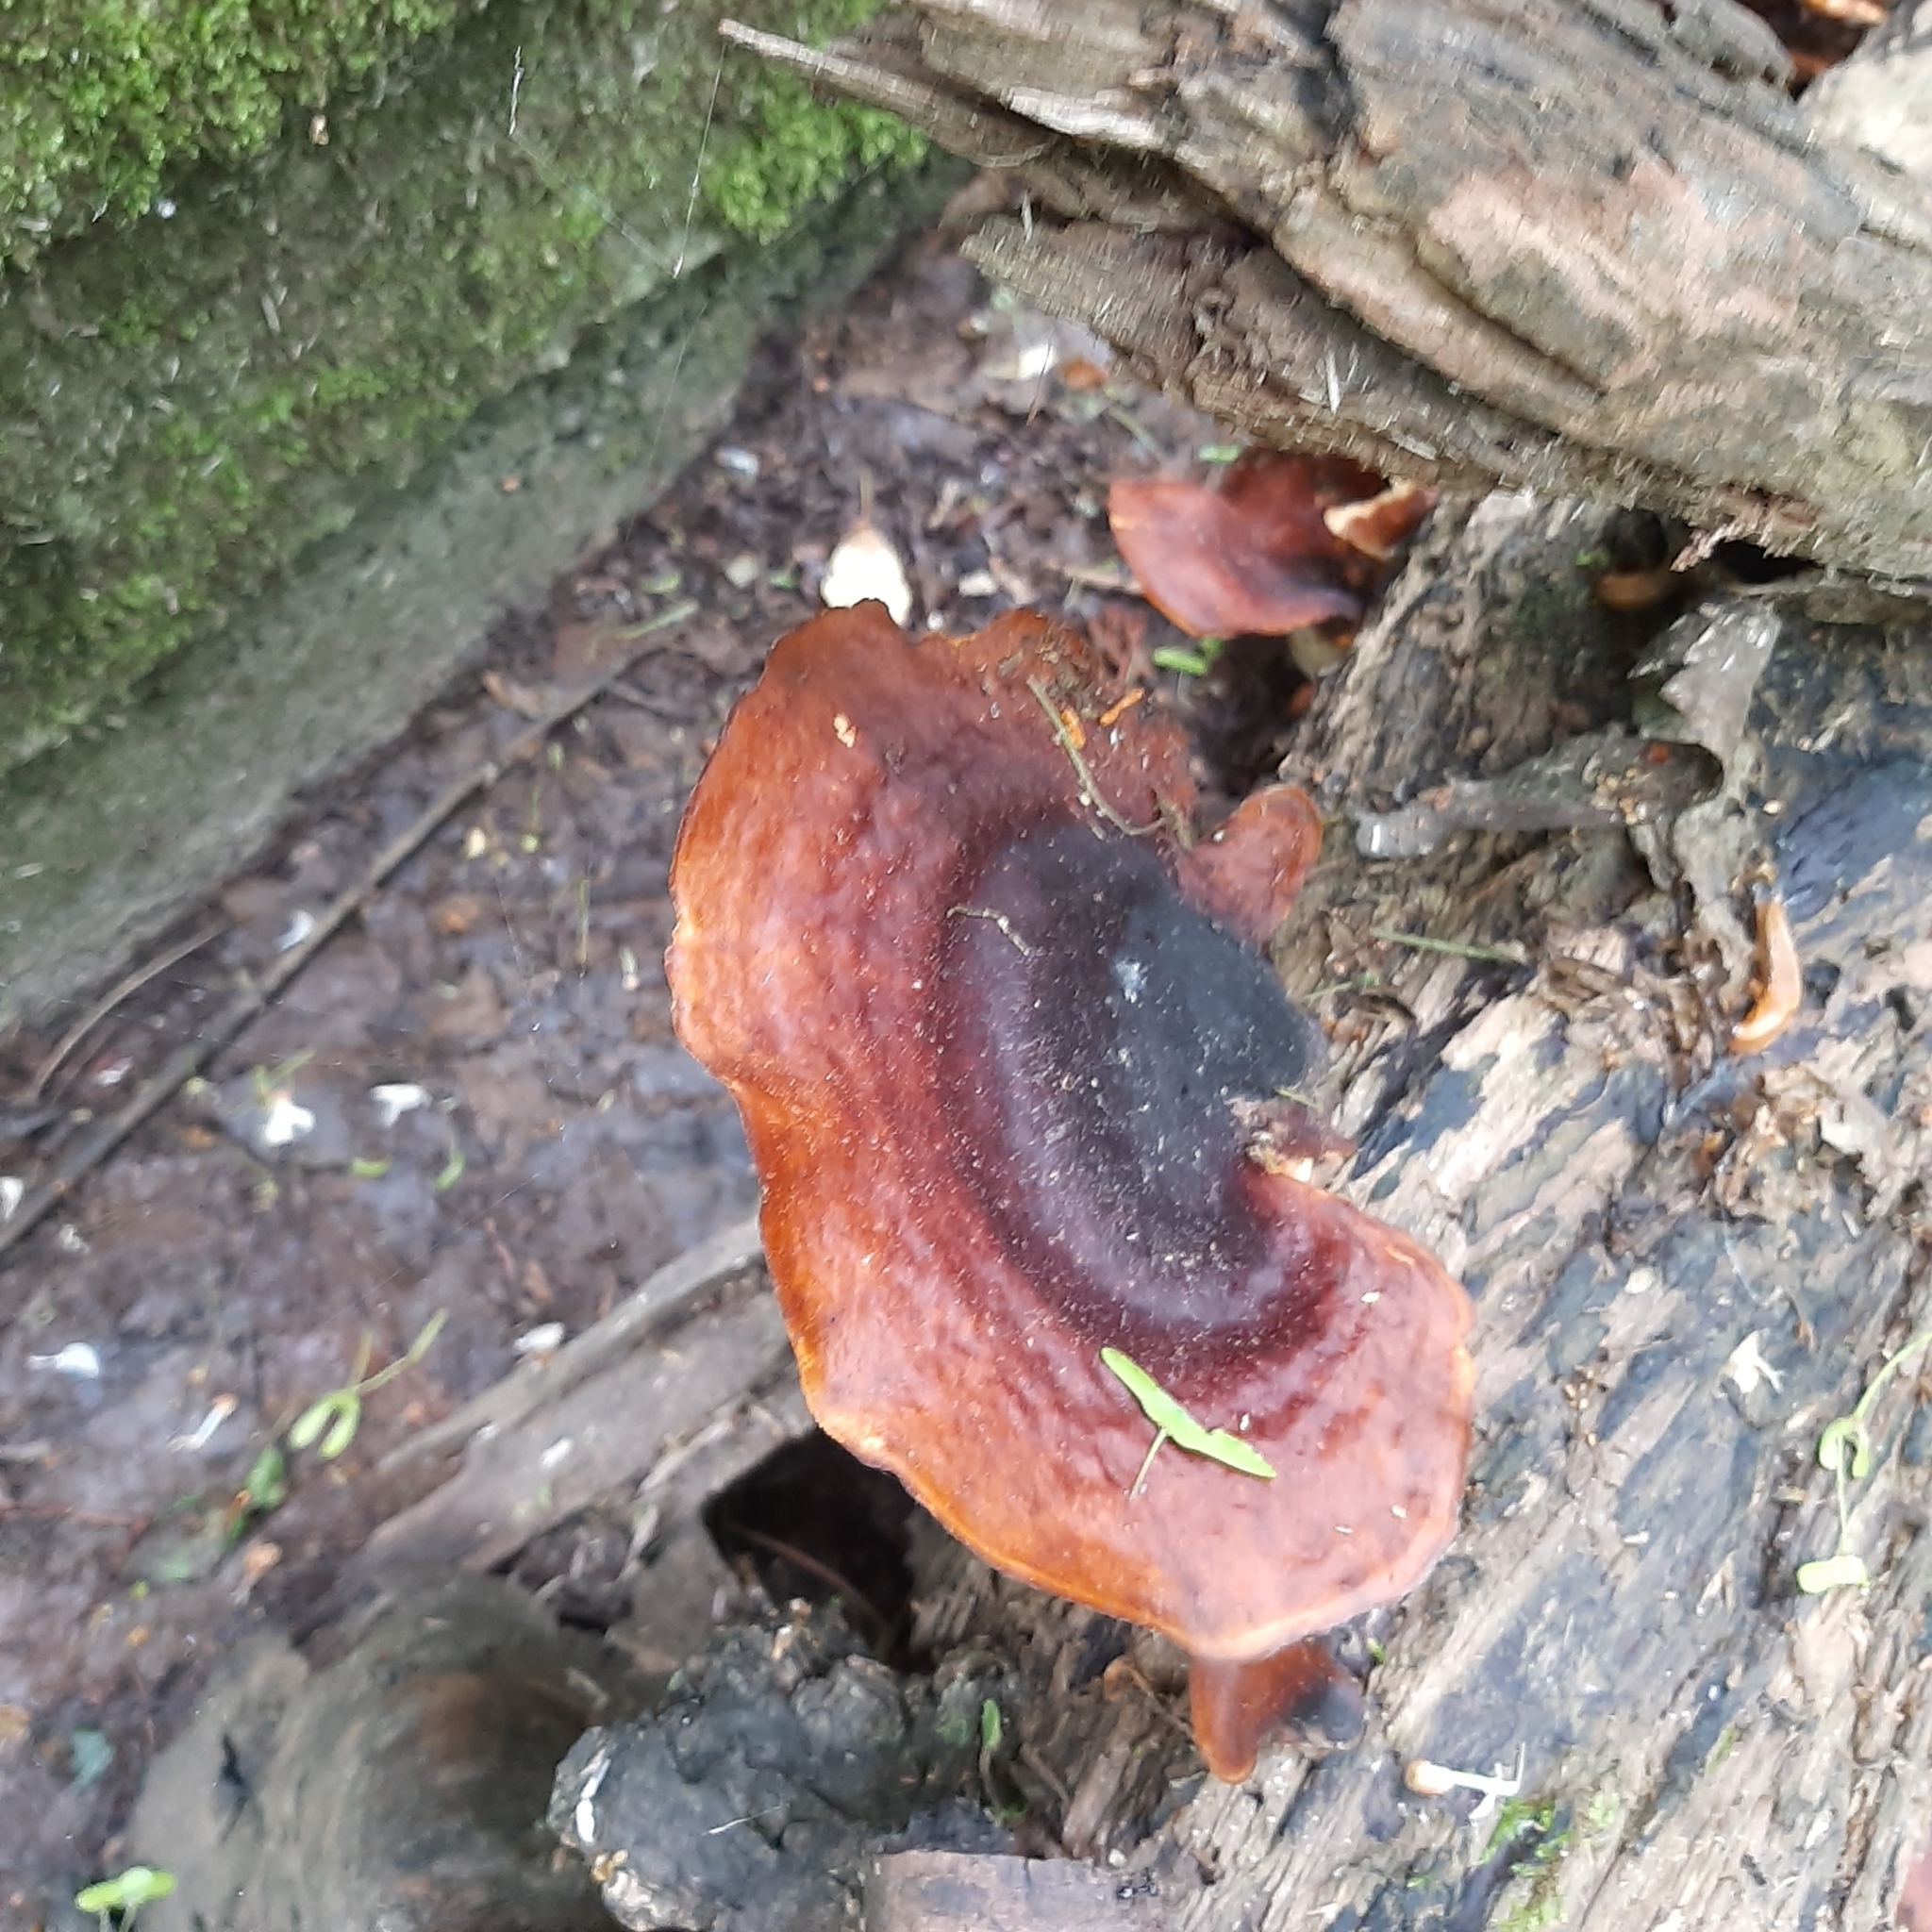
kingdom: Fungi
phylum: Basidiomycota
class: Agaricomycetes
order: Polyporales
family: Polyporaceae
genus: Picipes
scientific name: Picipes badius
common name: Bay polypore
